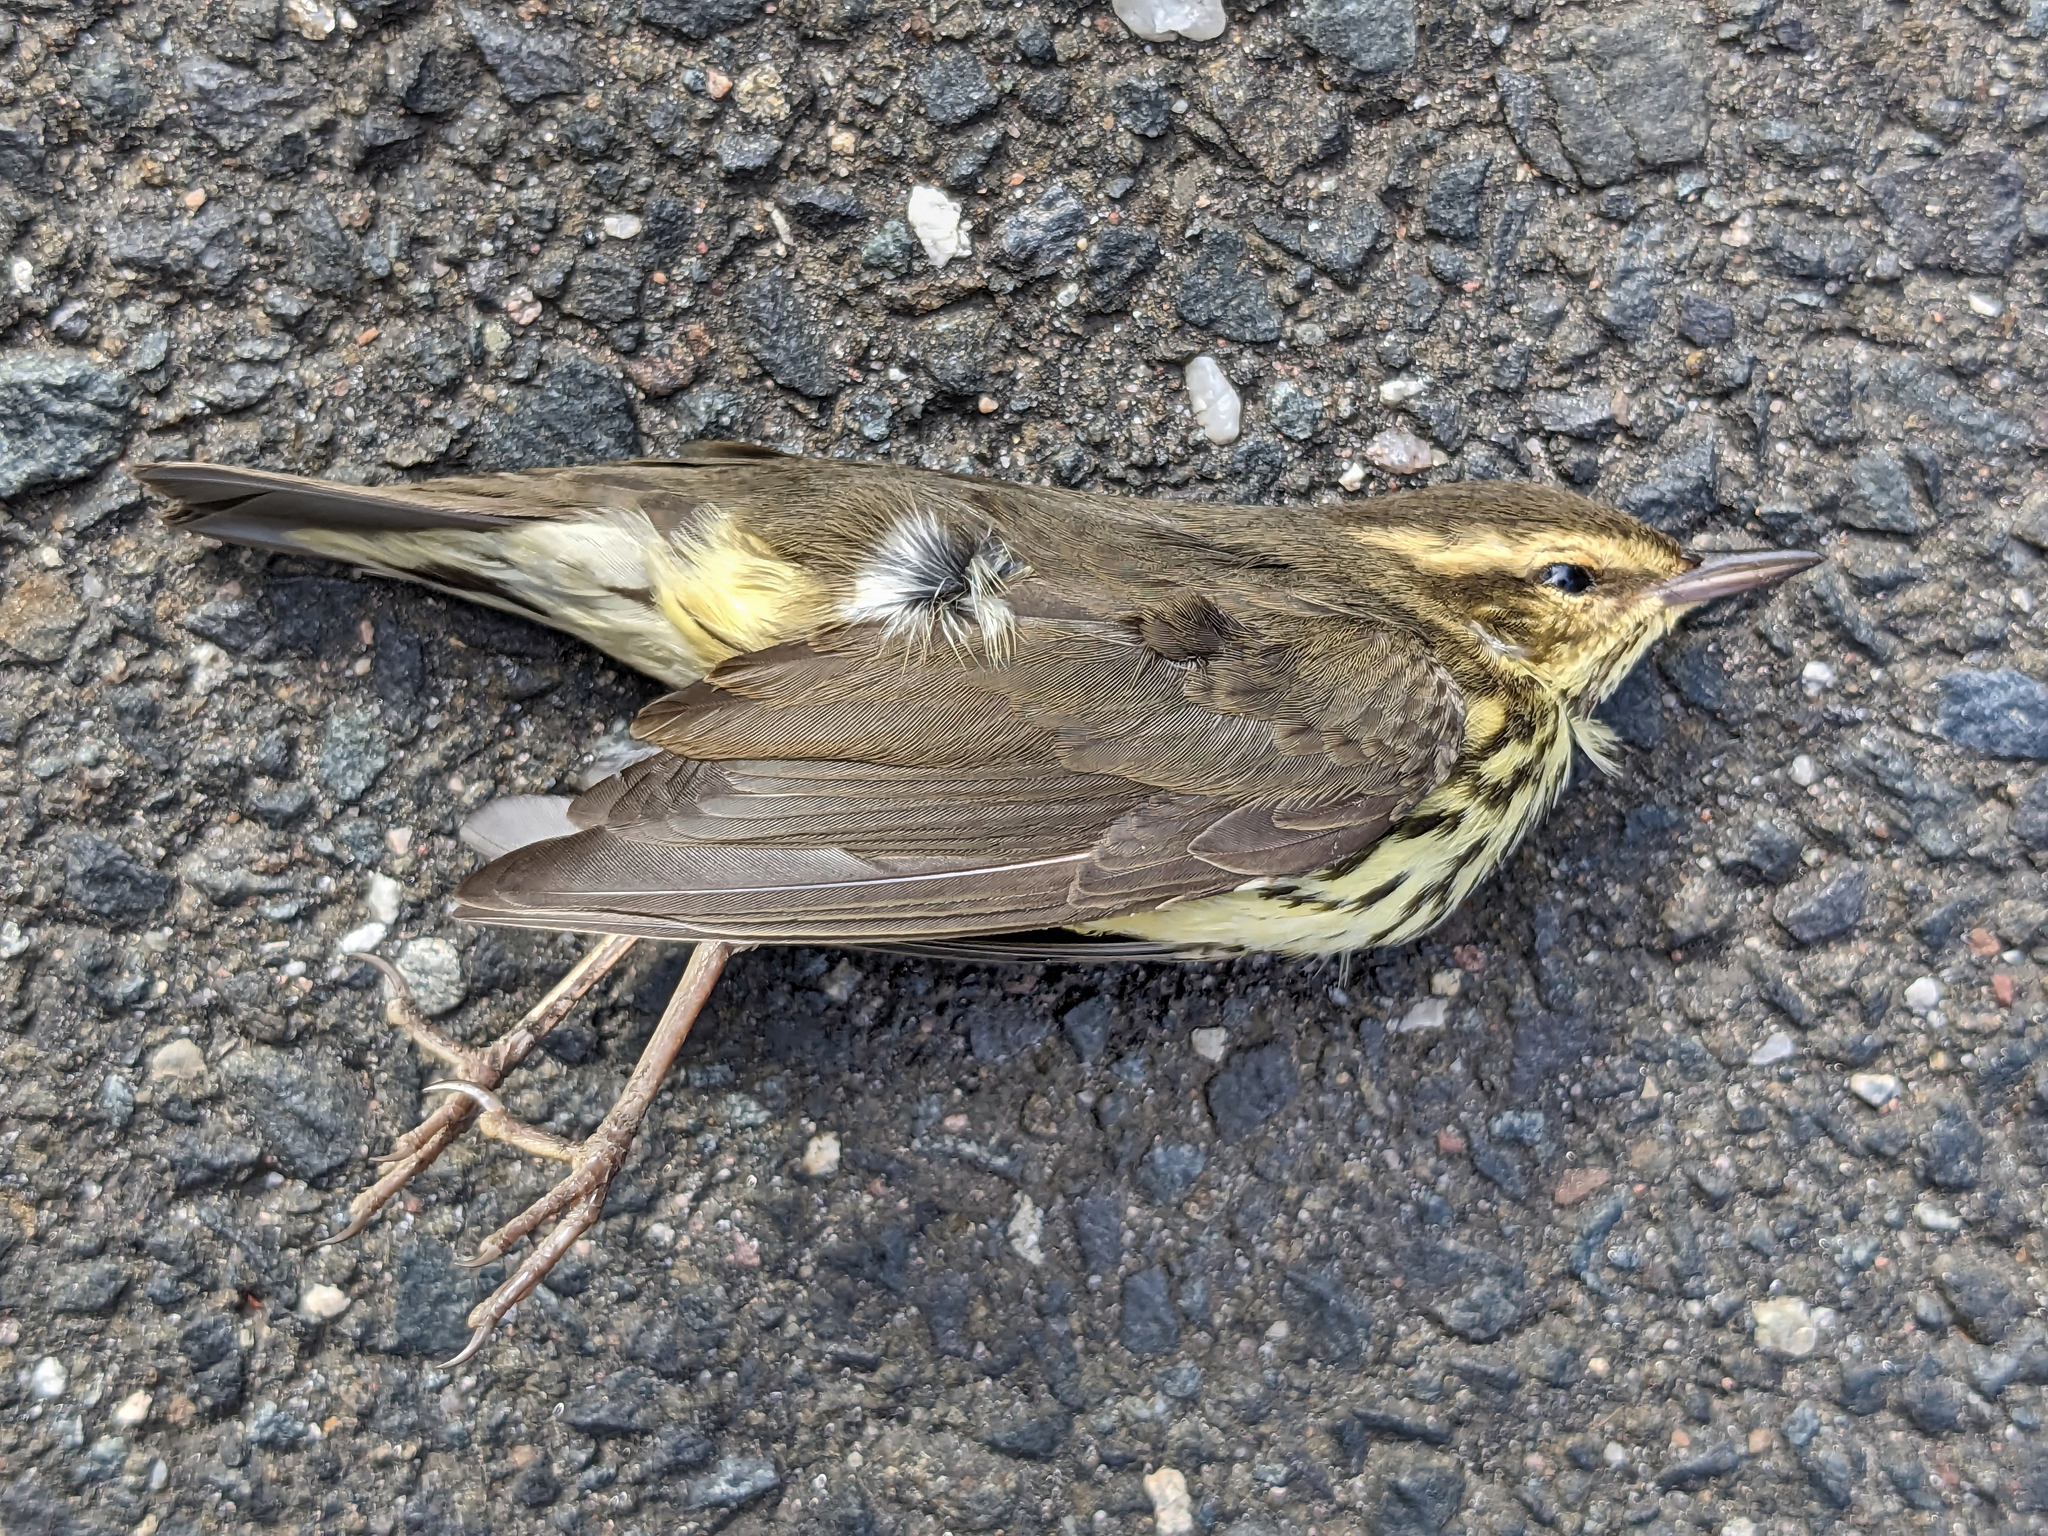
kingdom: Animalia
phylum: Chordata
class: Aves
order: Passeriformes
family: Parulidae
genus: Parkesia
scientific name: Parkesia noveboracensis
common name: Northern waterthrush
